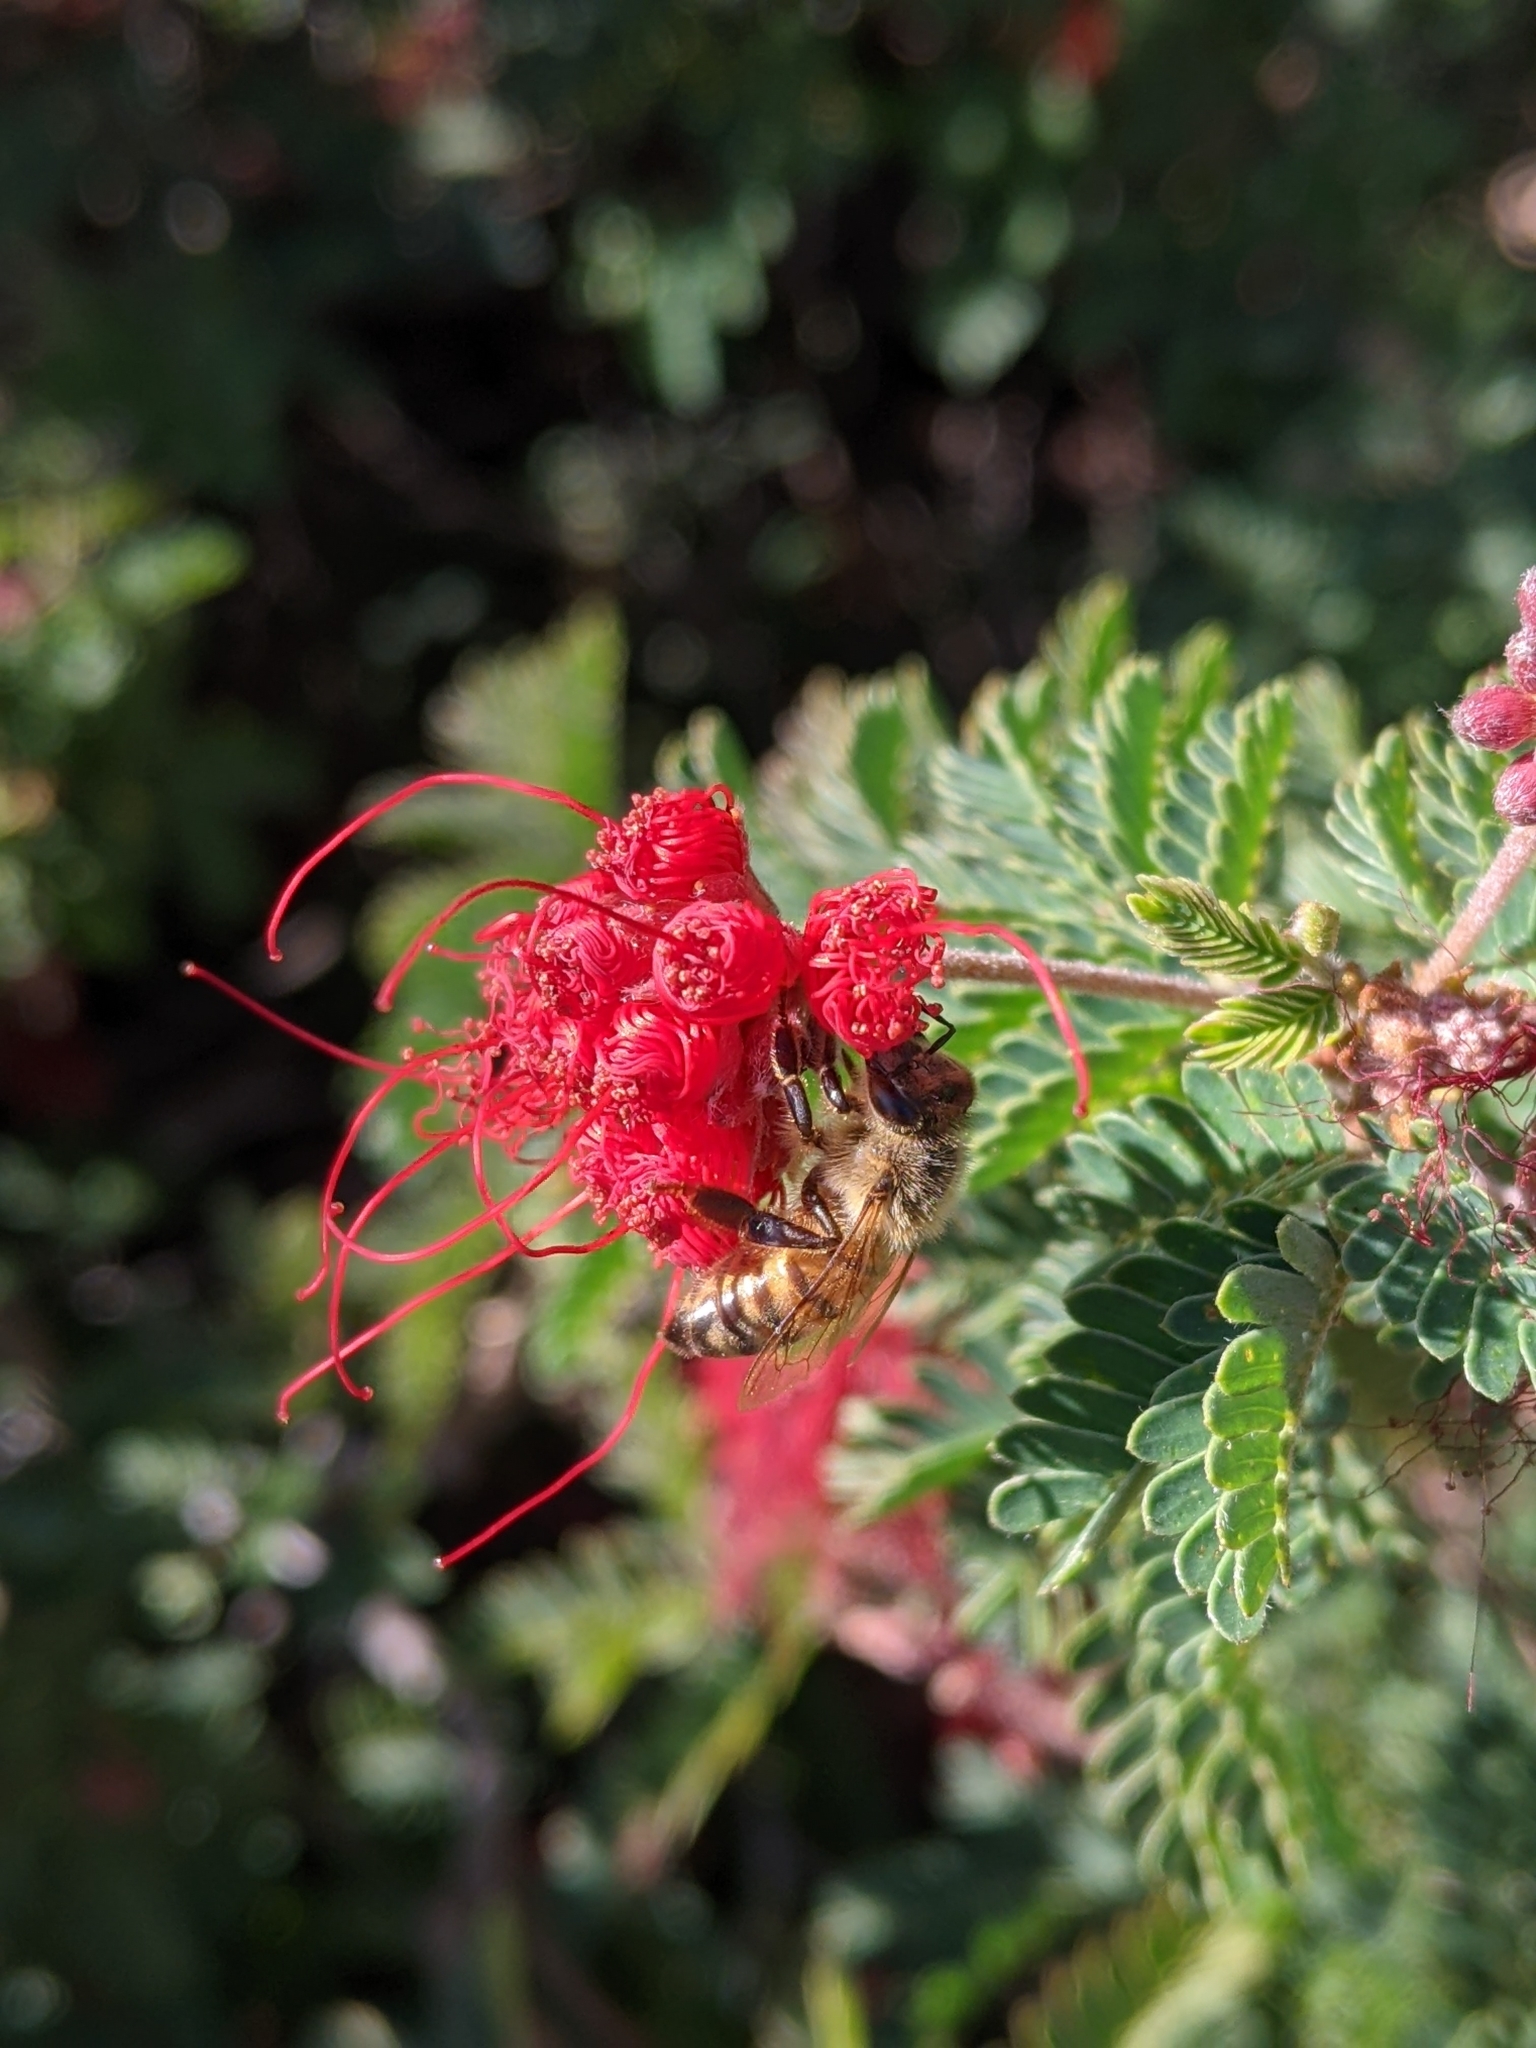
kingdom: Animalia
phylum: Arthropoda
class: Insecta
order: Hymenoptera
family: Apidae
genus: Apis
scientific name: Apis mellifera
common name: Honey bee
